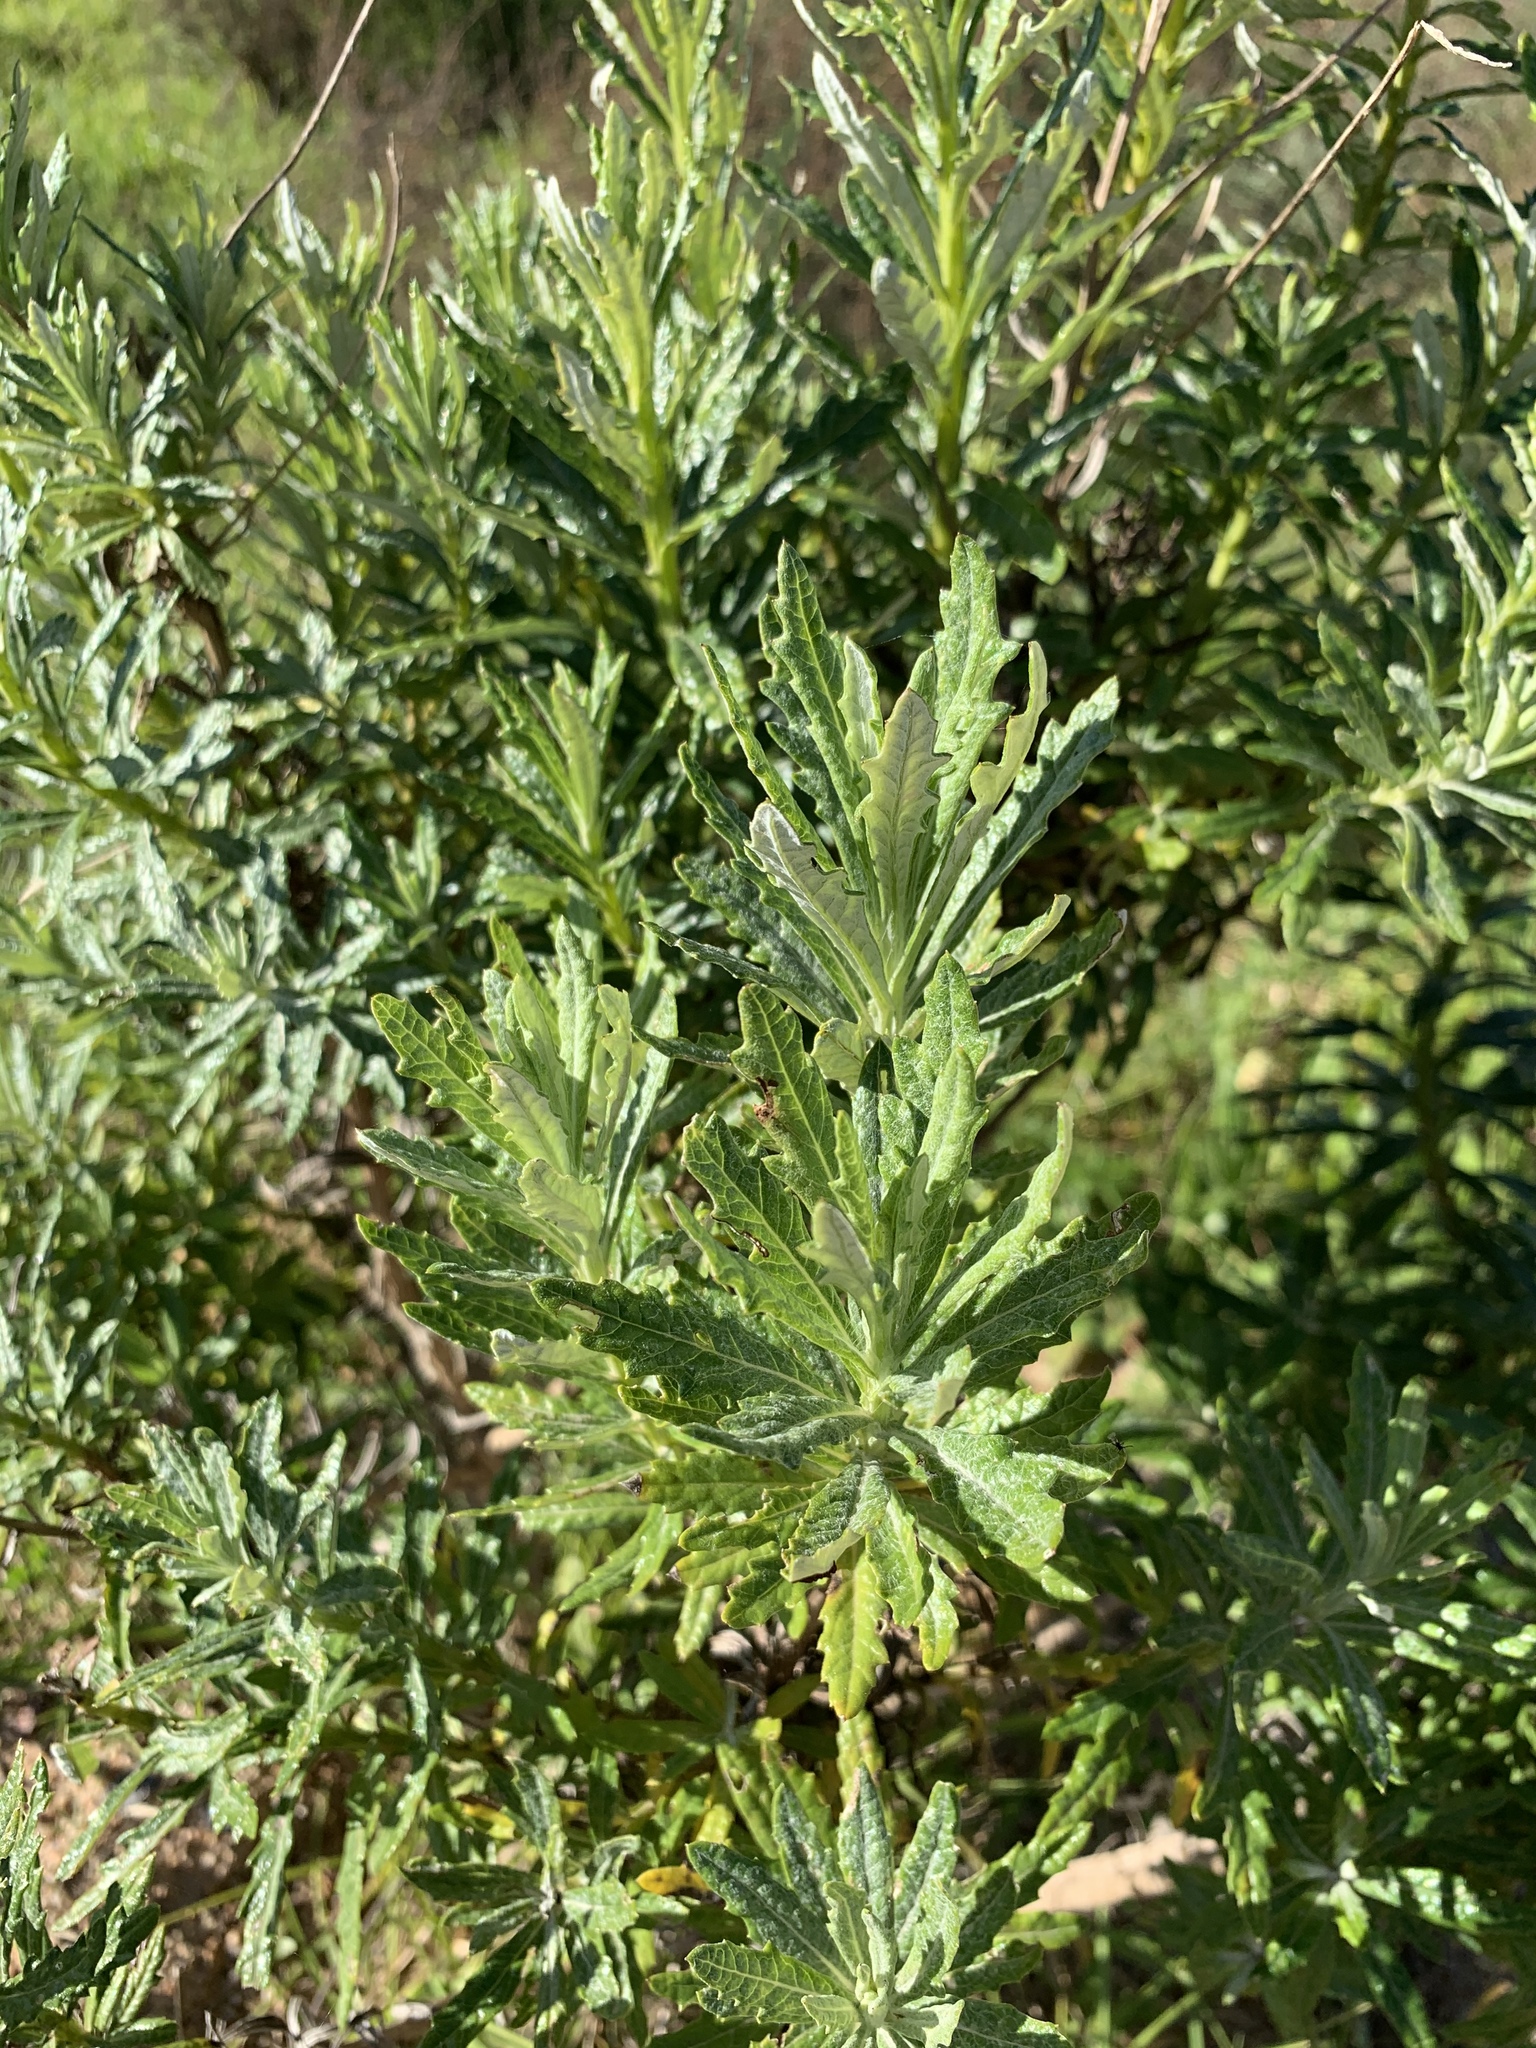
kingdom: Plantae
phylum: Tracheophyta
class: Magnoliopsida
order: Asterales
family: Asteraceae
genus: Senecio
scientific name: Senecio pterophorus
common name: Shoddy ragwort
